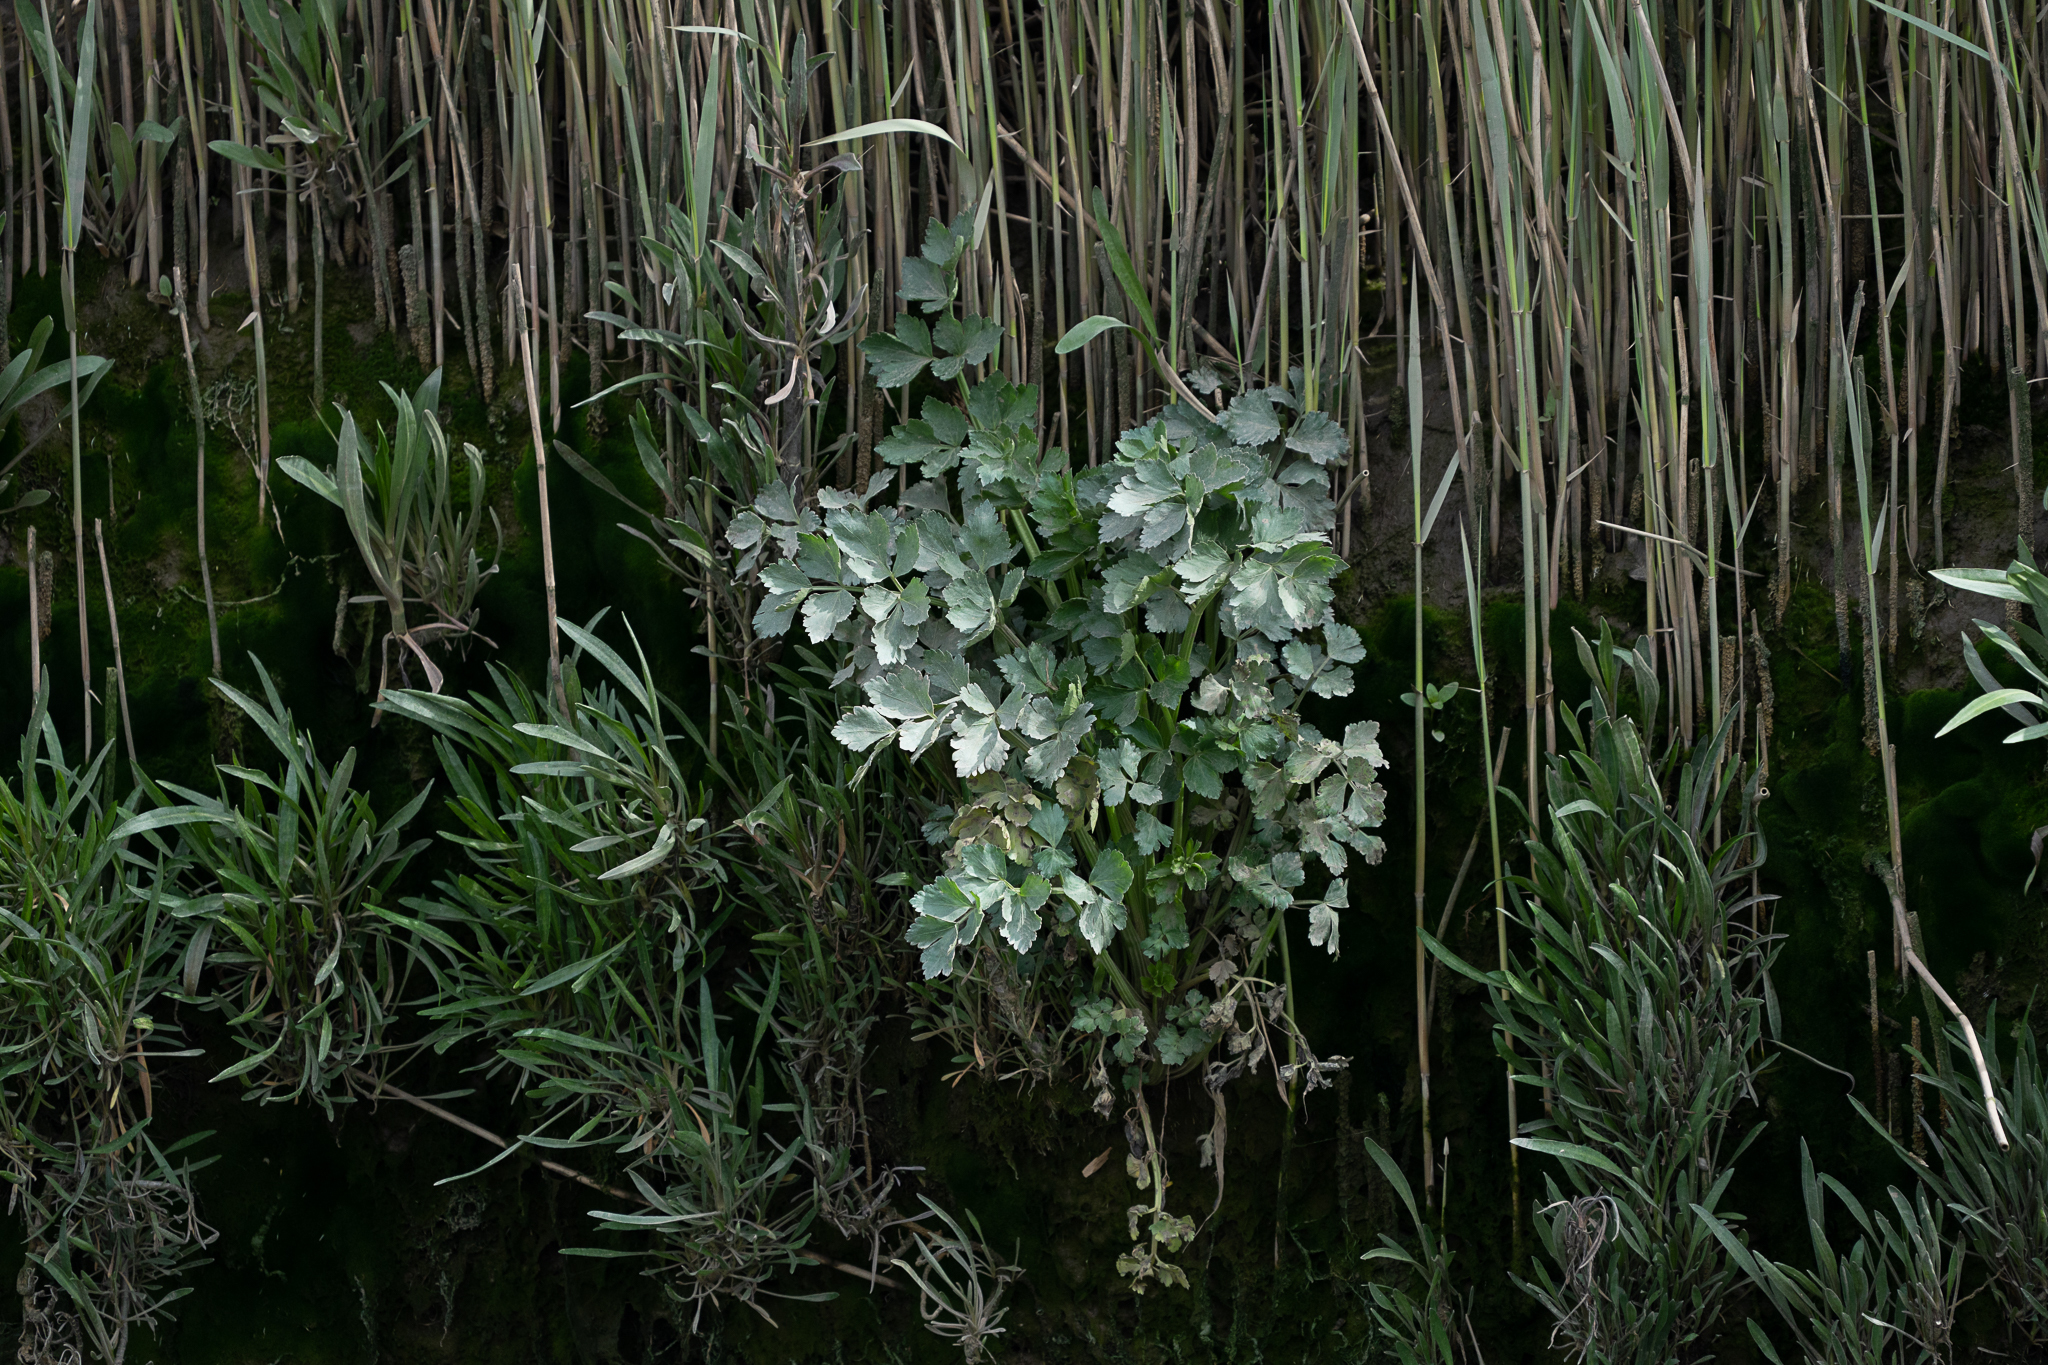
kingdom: Plantae
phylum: Tracheophyta
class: Magnoliopsida
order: Apiales
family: Apiaceae
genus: Oenanthe
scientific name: Oenanthe crocata
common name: Hemlock water-dropwort
